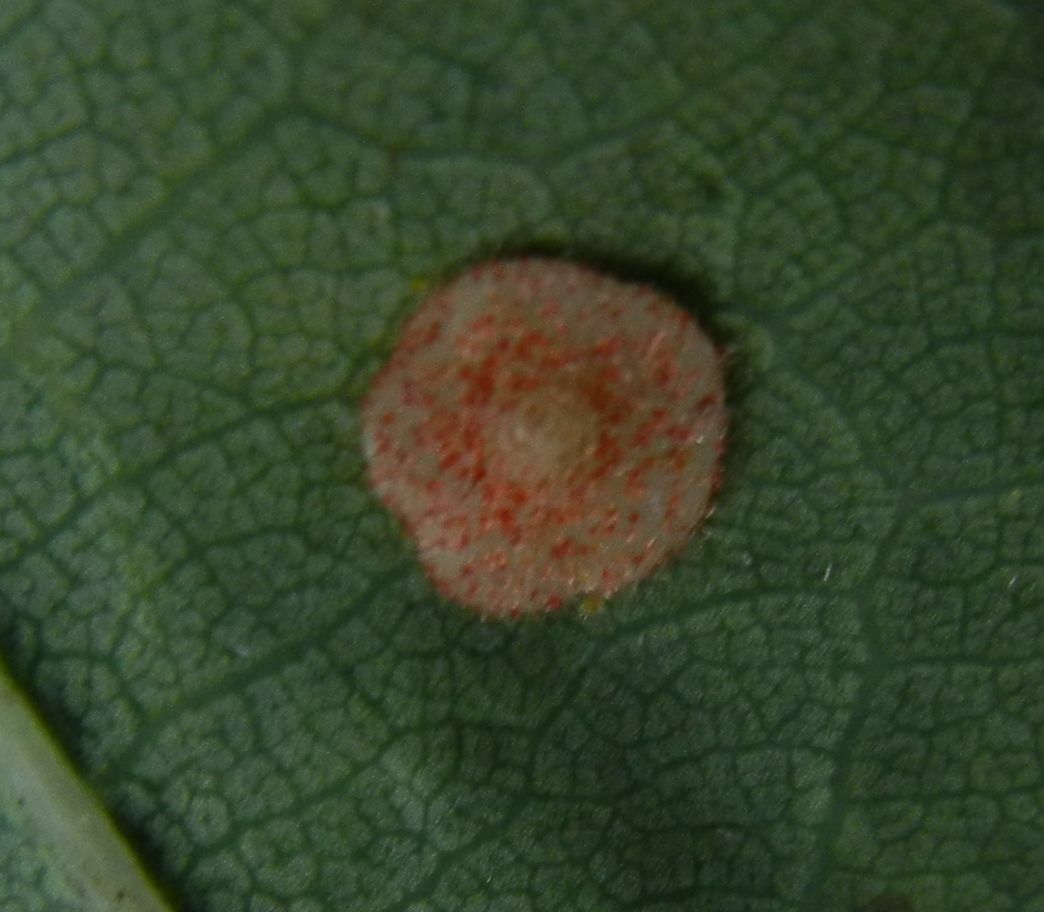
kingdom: Animalia
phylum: Arthropoda
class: Insecta
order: Hymenoptera
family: Cynipidae
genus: Neuroterus
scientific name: Neuroterus quercusbaccarum
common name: Common spangle gall
